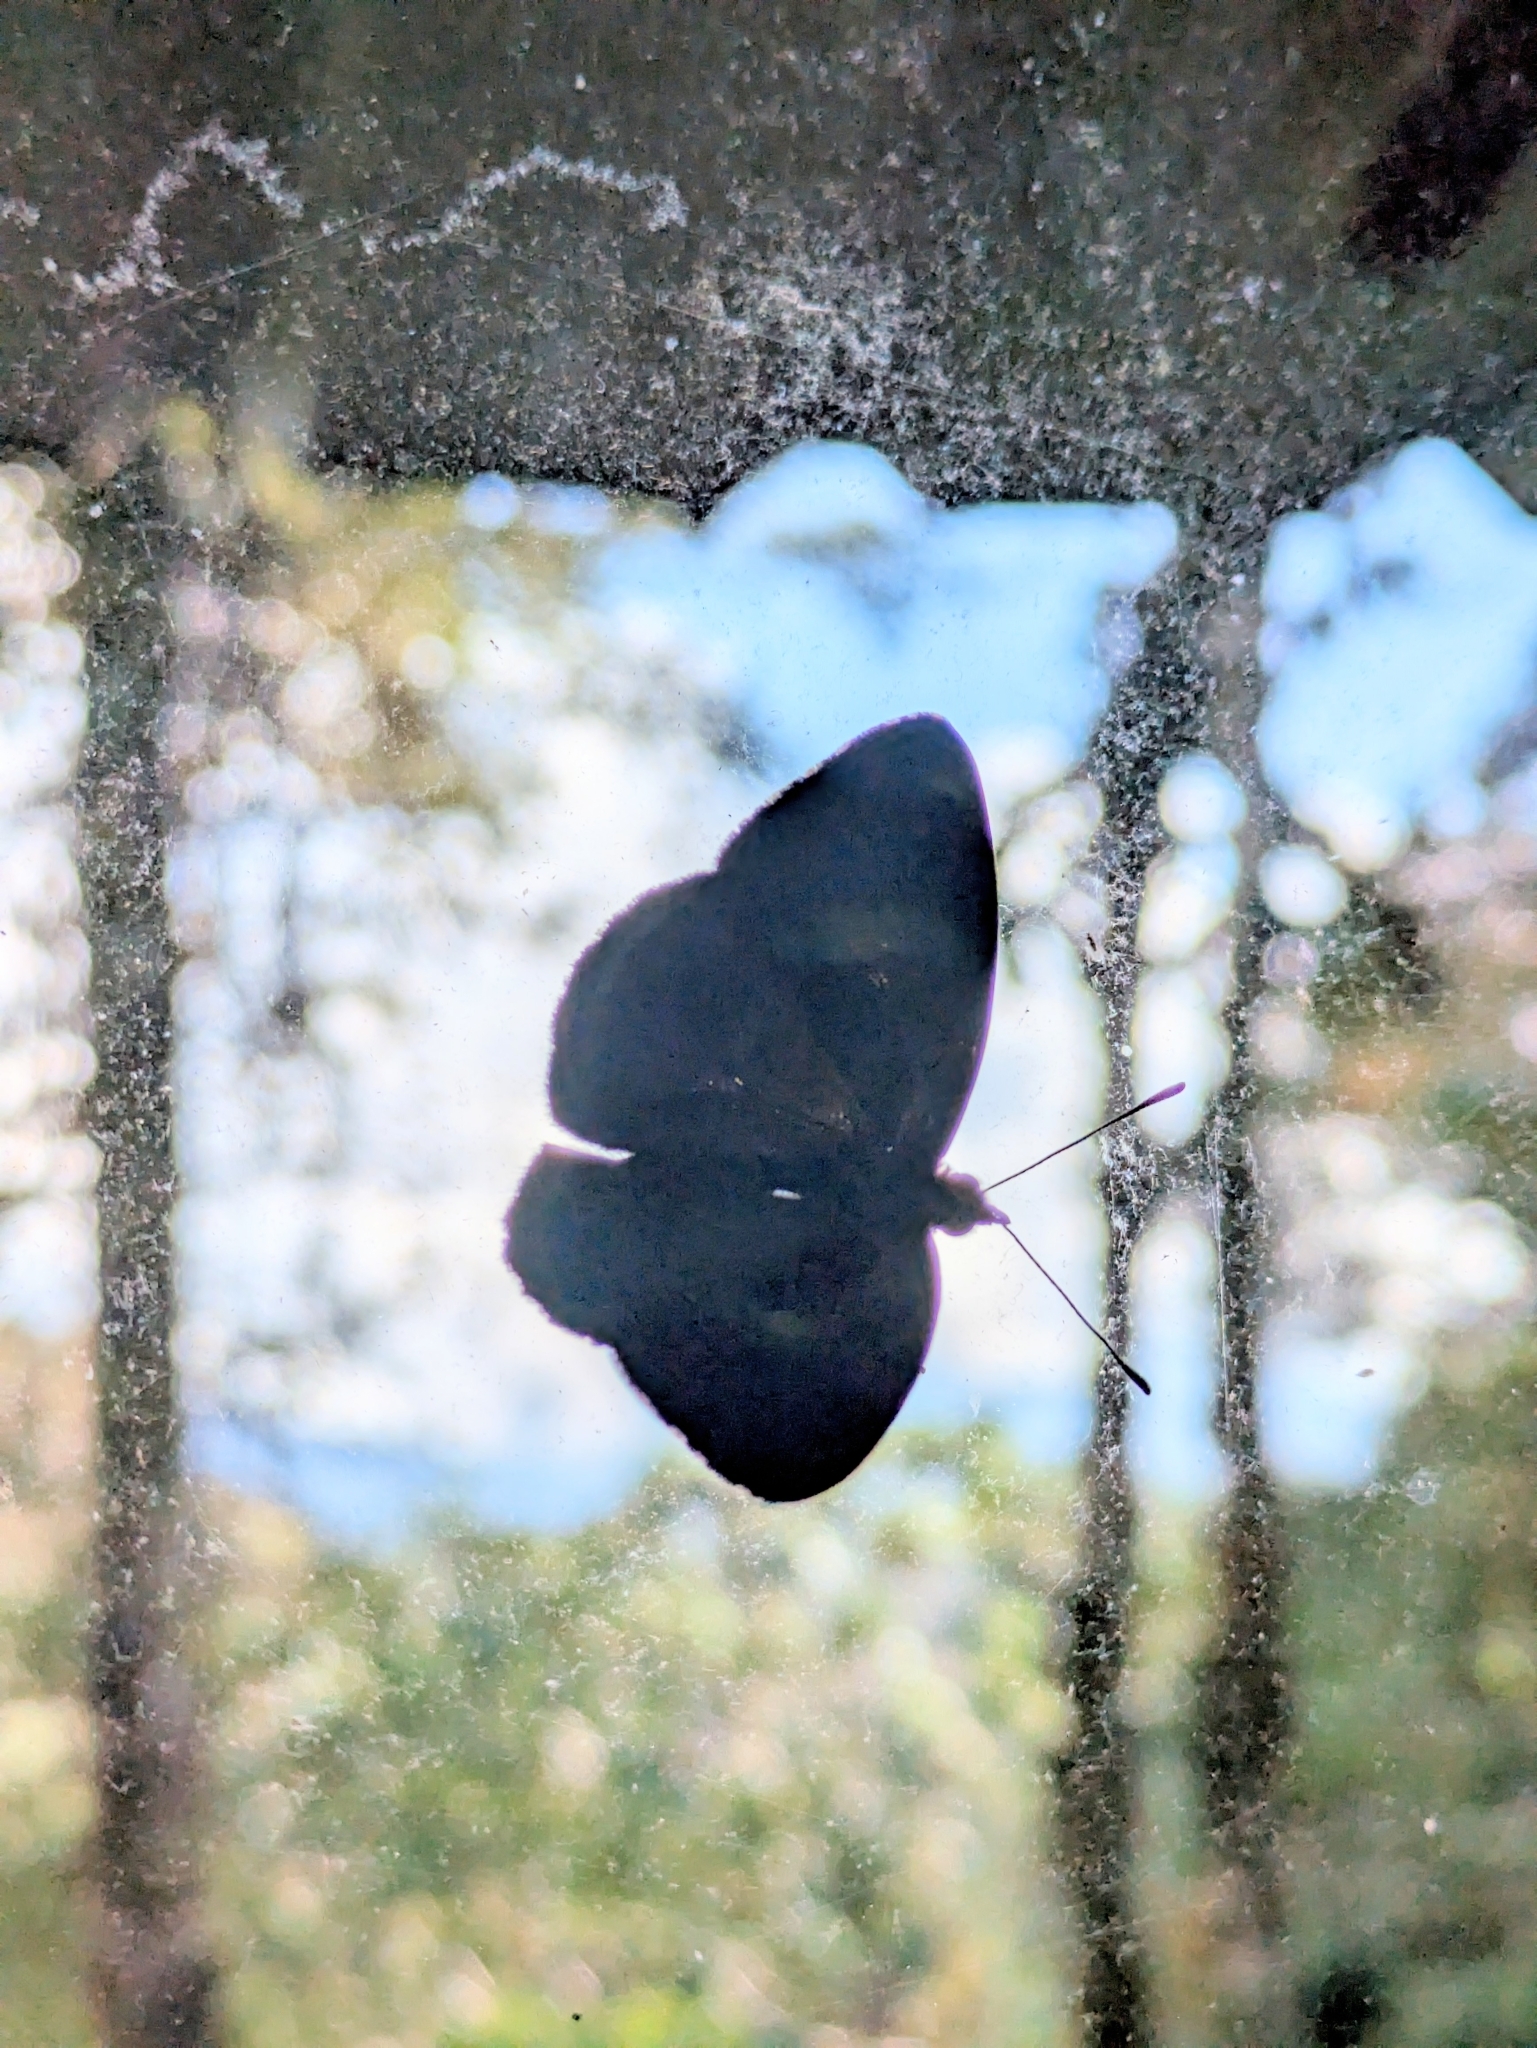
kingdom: Animalia
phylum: Arthropoda
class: Insecta
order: Lepidoptera
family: Nymphalidae
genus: Perisama
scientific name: Perisama oppelii
